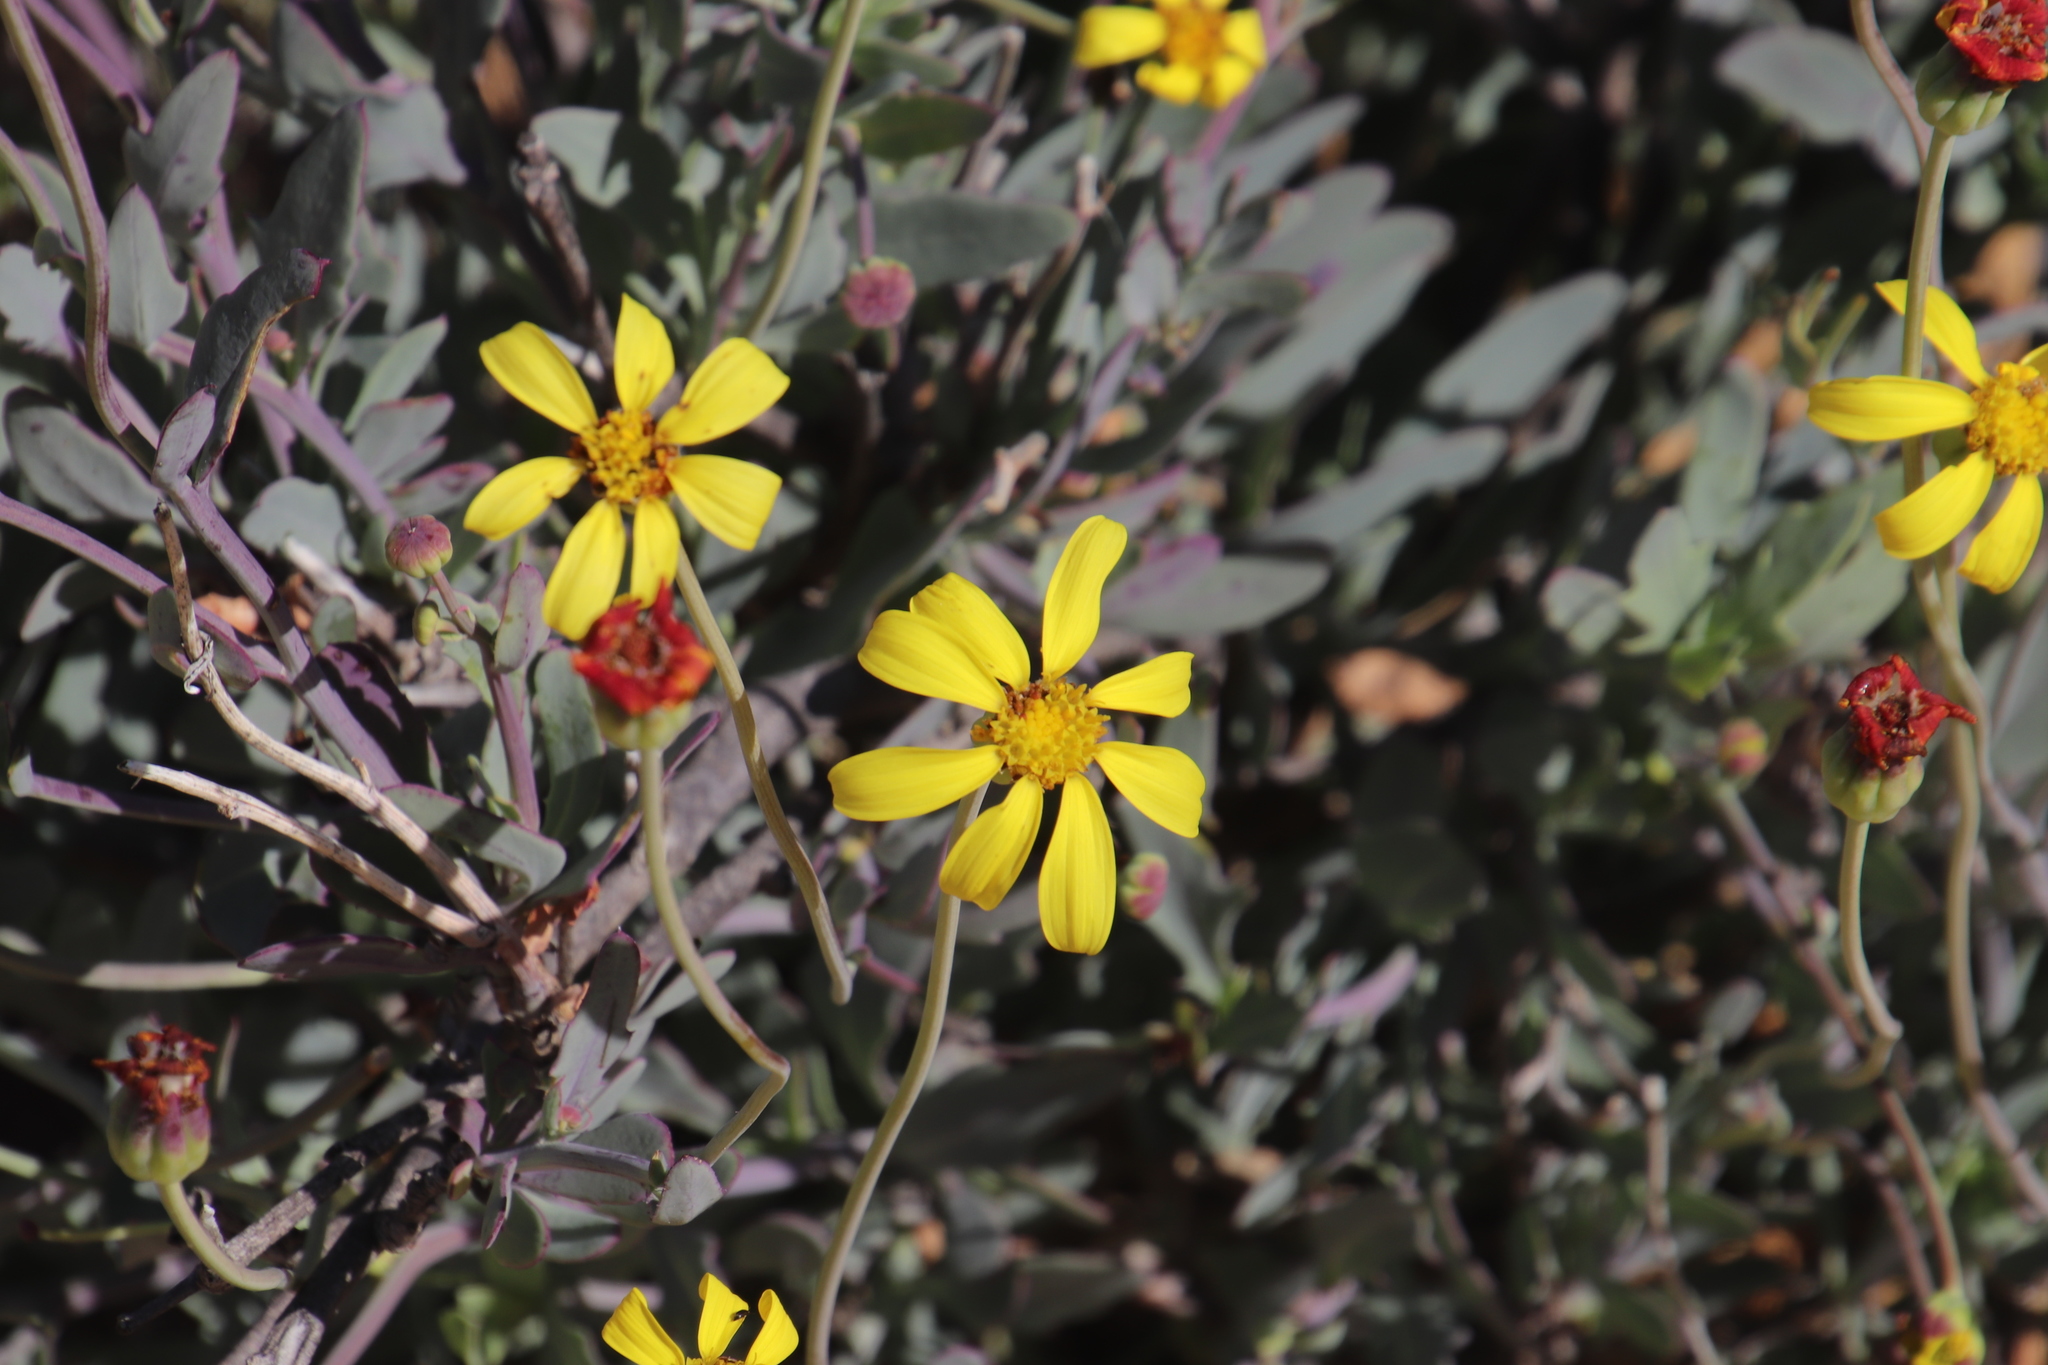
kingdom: Plantae
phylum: Tracheophyta
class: Magnoliopsida
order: Asterales
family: Asteraceae
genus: Othonna
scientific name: Othonna humilis
